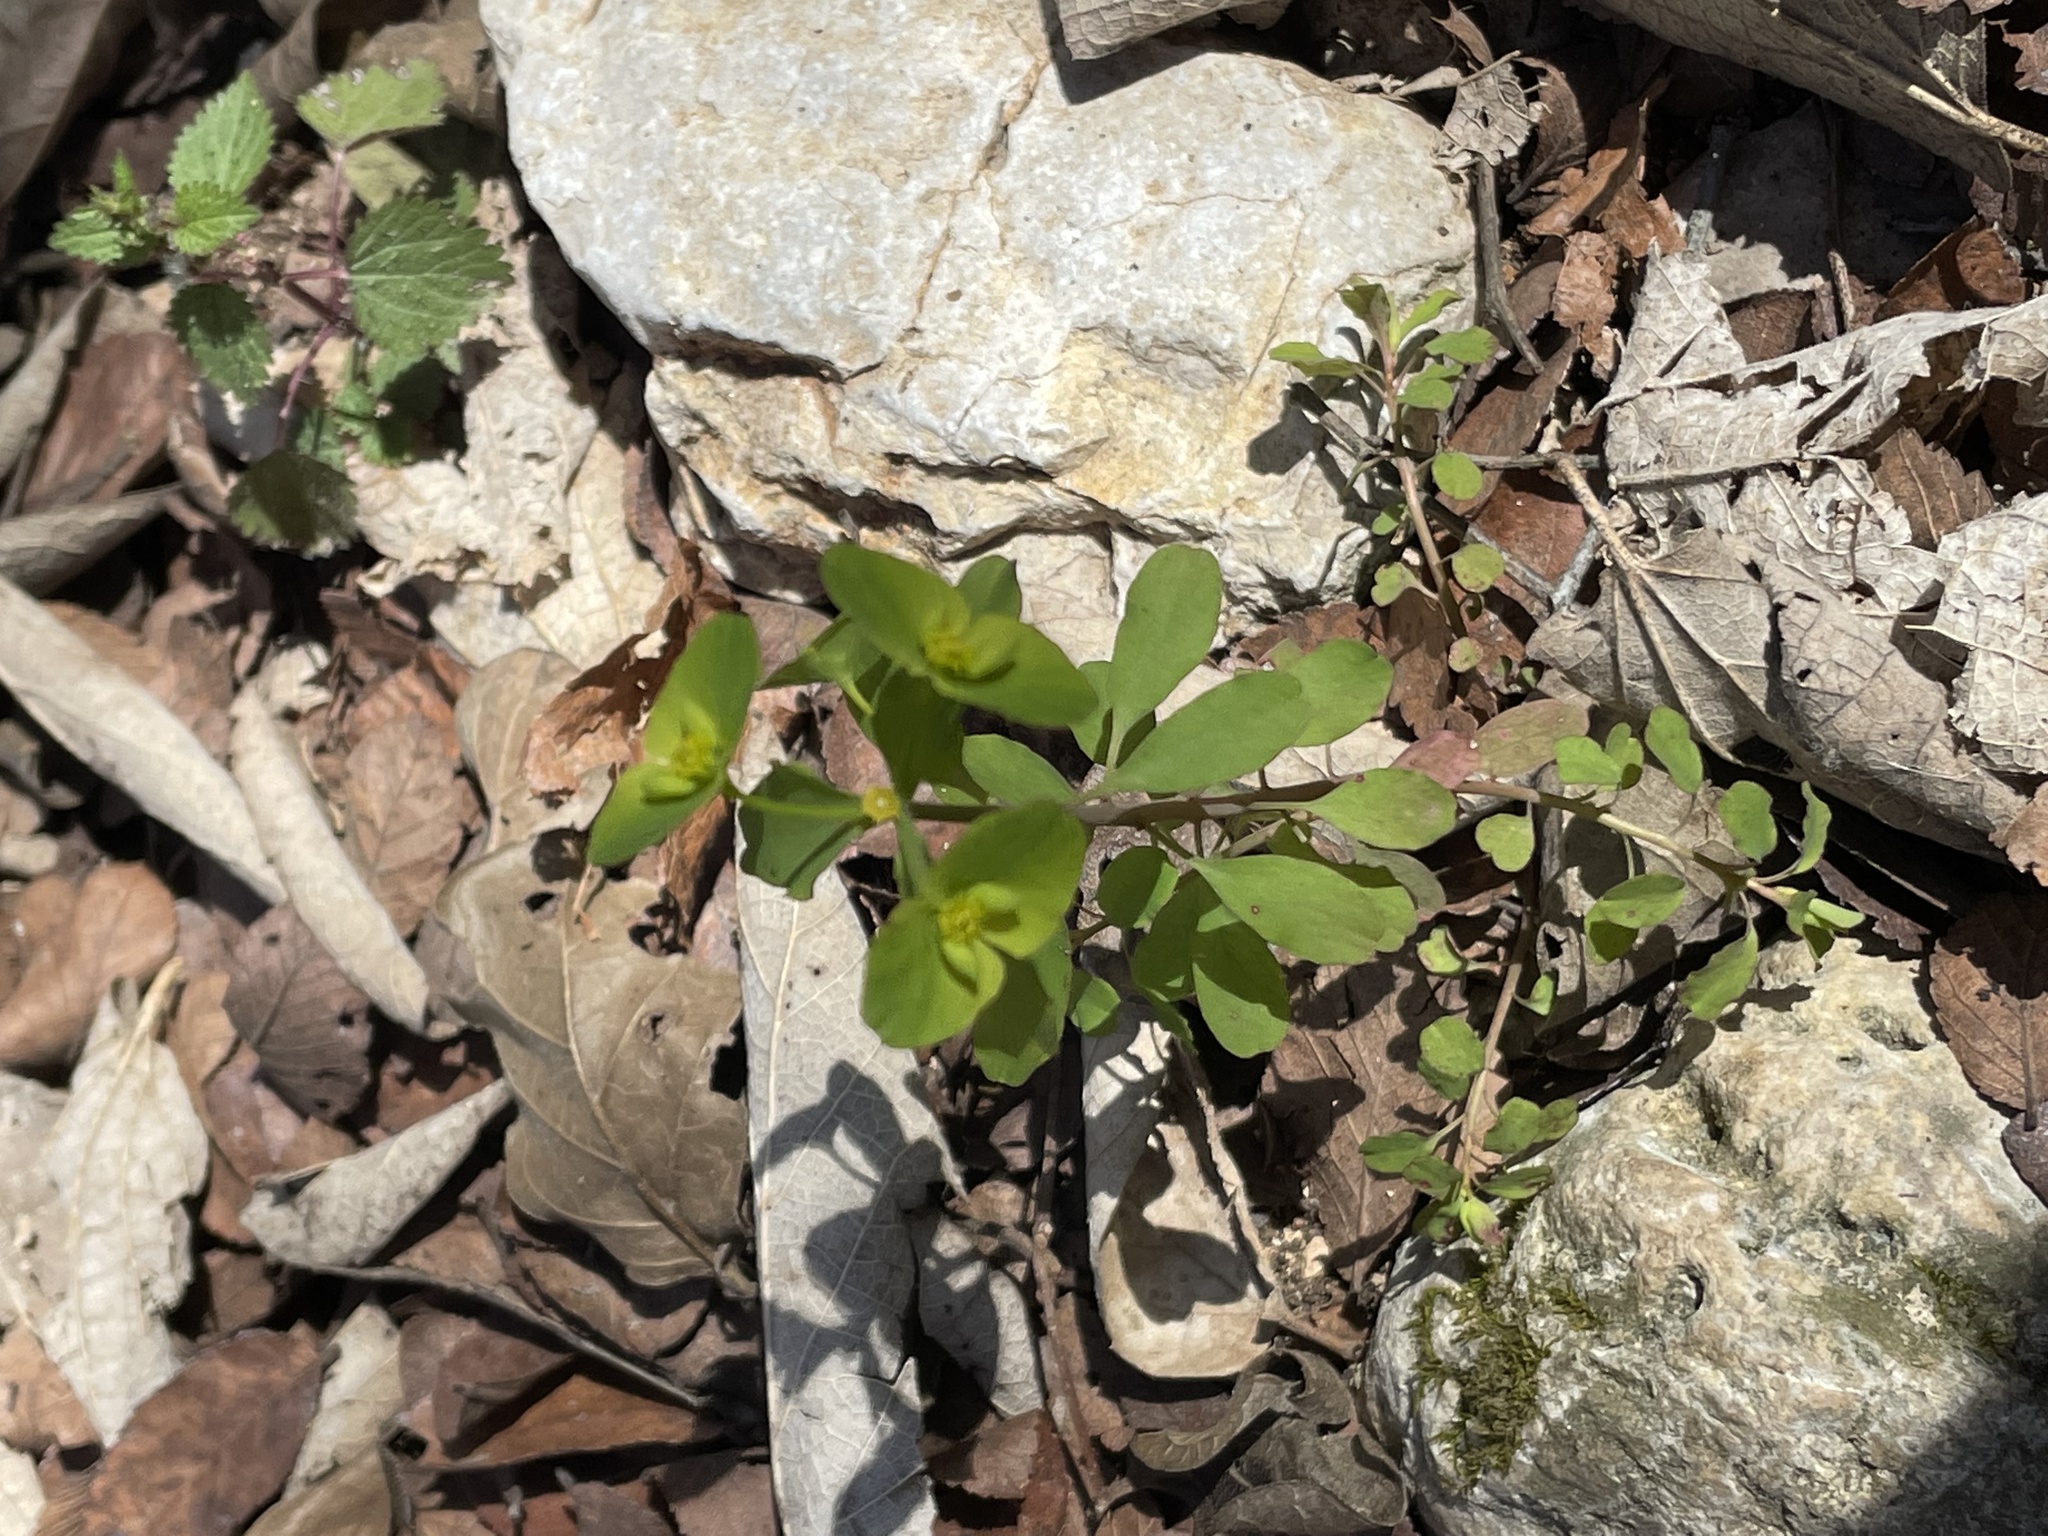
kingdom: Plantae
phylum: Tracheophyta
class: Magnoliopsida
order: Malpighiales
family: Euphorbiaceae
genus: Euphorbia
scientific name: Euphorbia roemeriana
